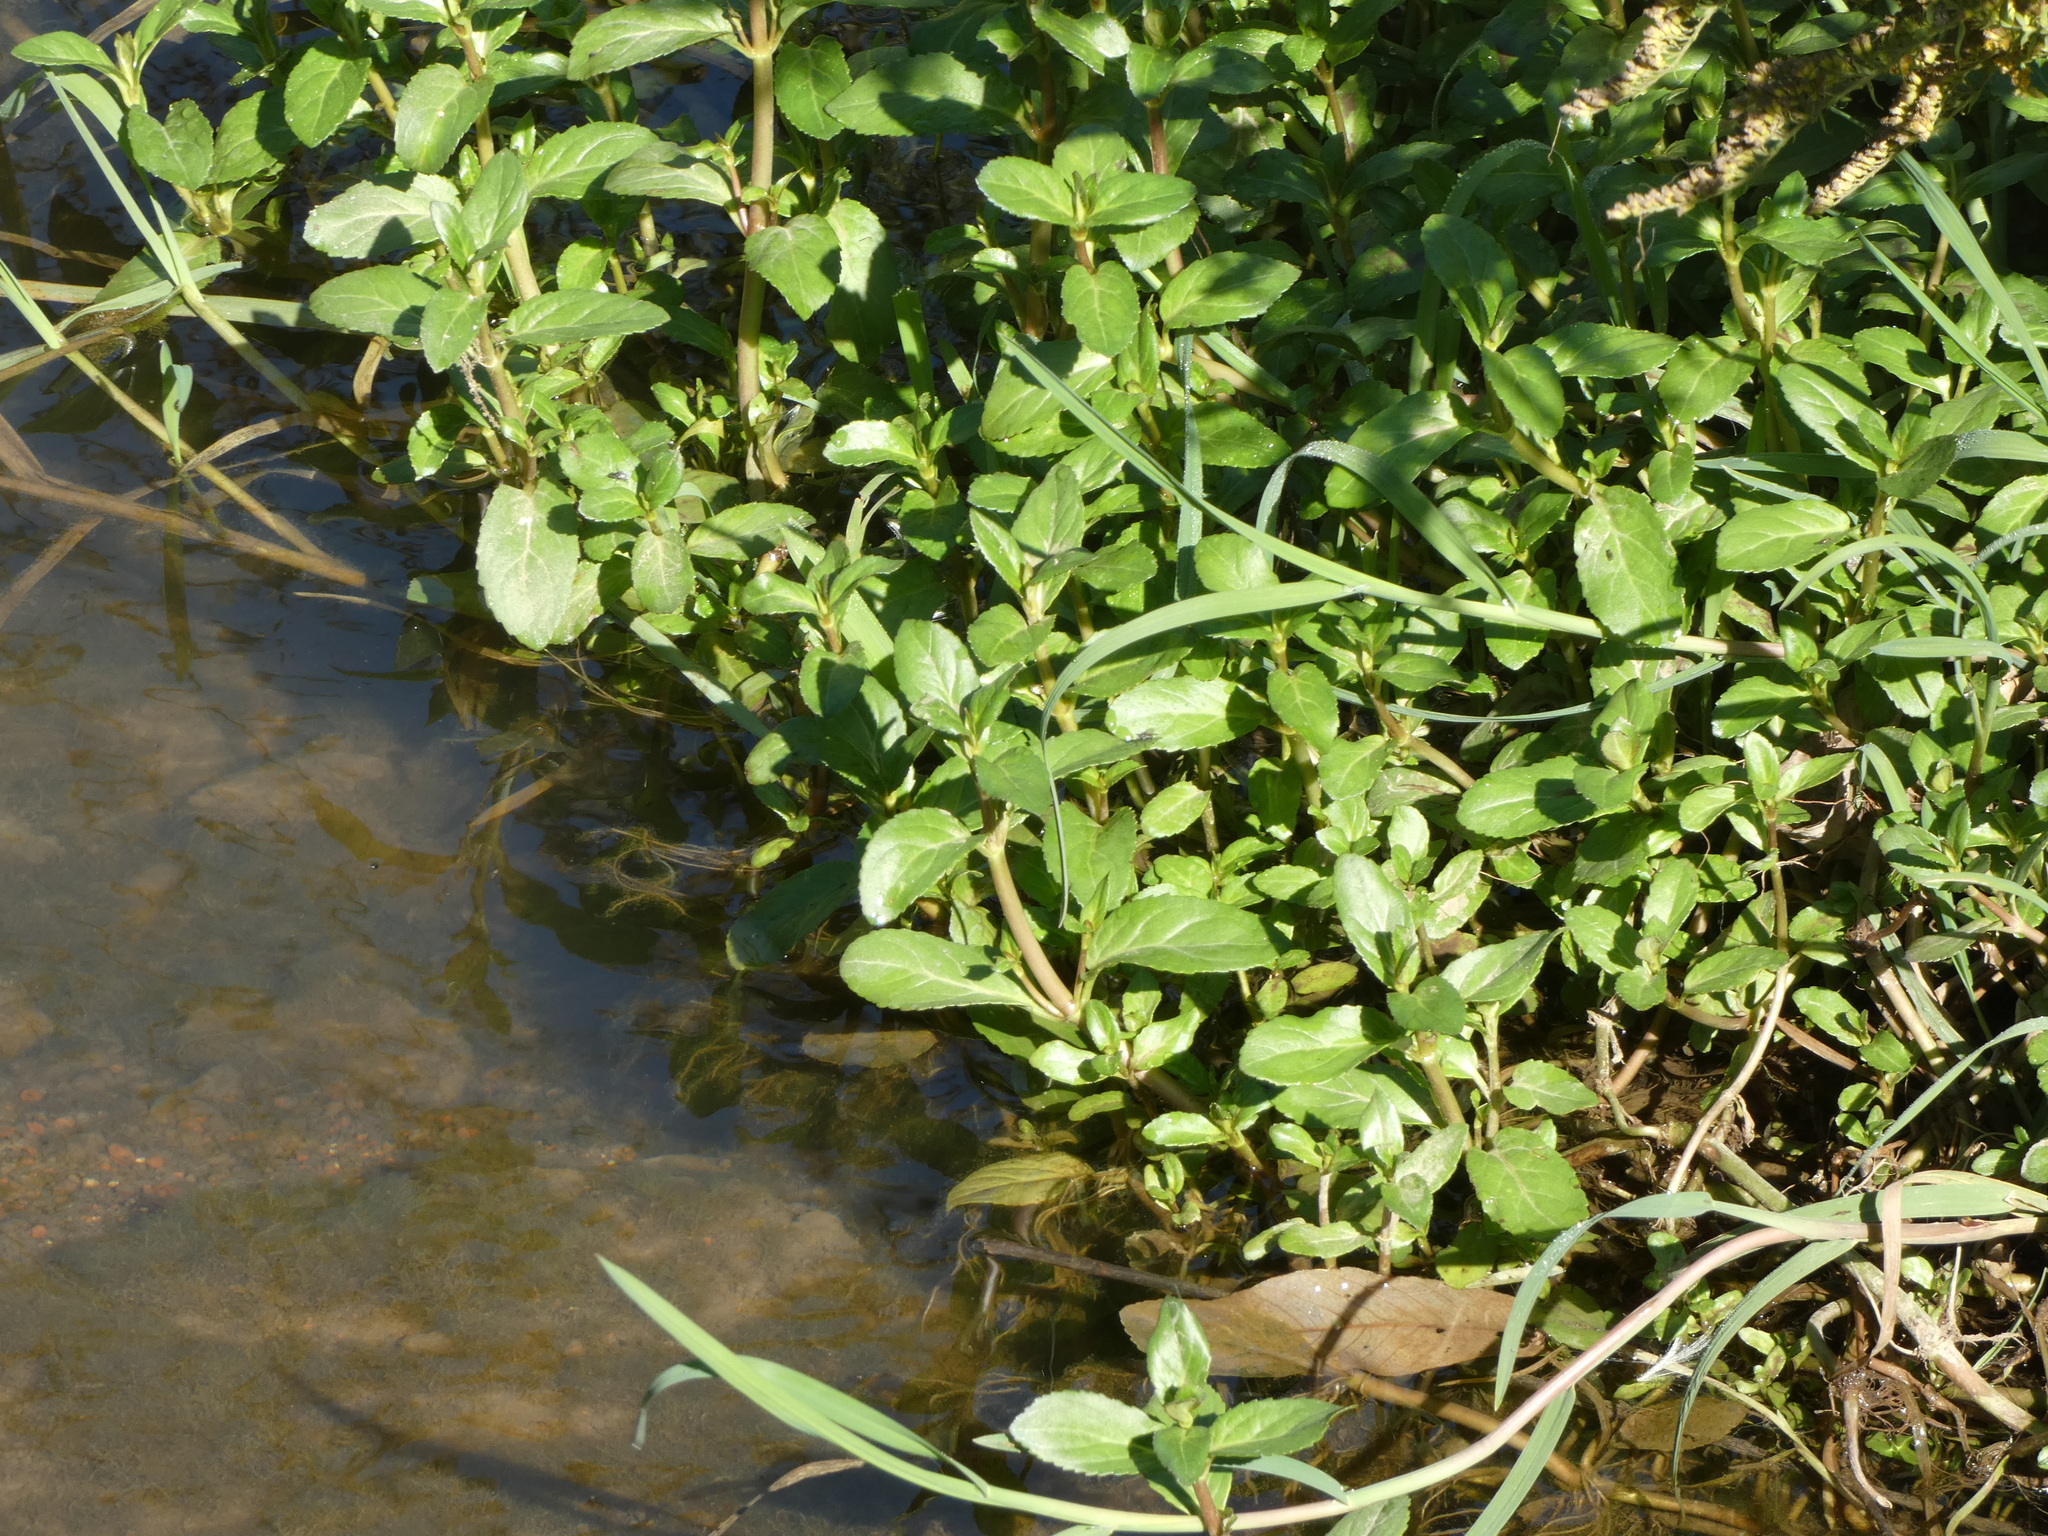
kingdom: Plantae
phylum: Tracheophyta
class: Magnoliopsida
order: Lamiales
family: Plantaginaceae
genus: Veronica
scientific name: Veronica beccabunga
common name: Brooklime
